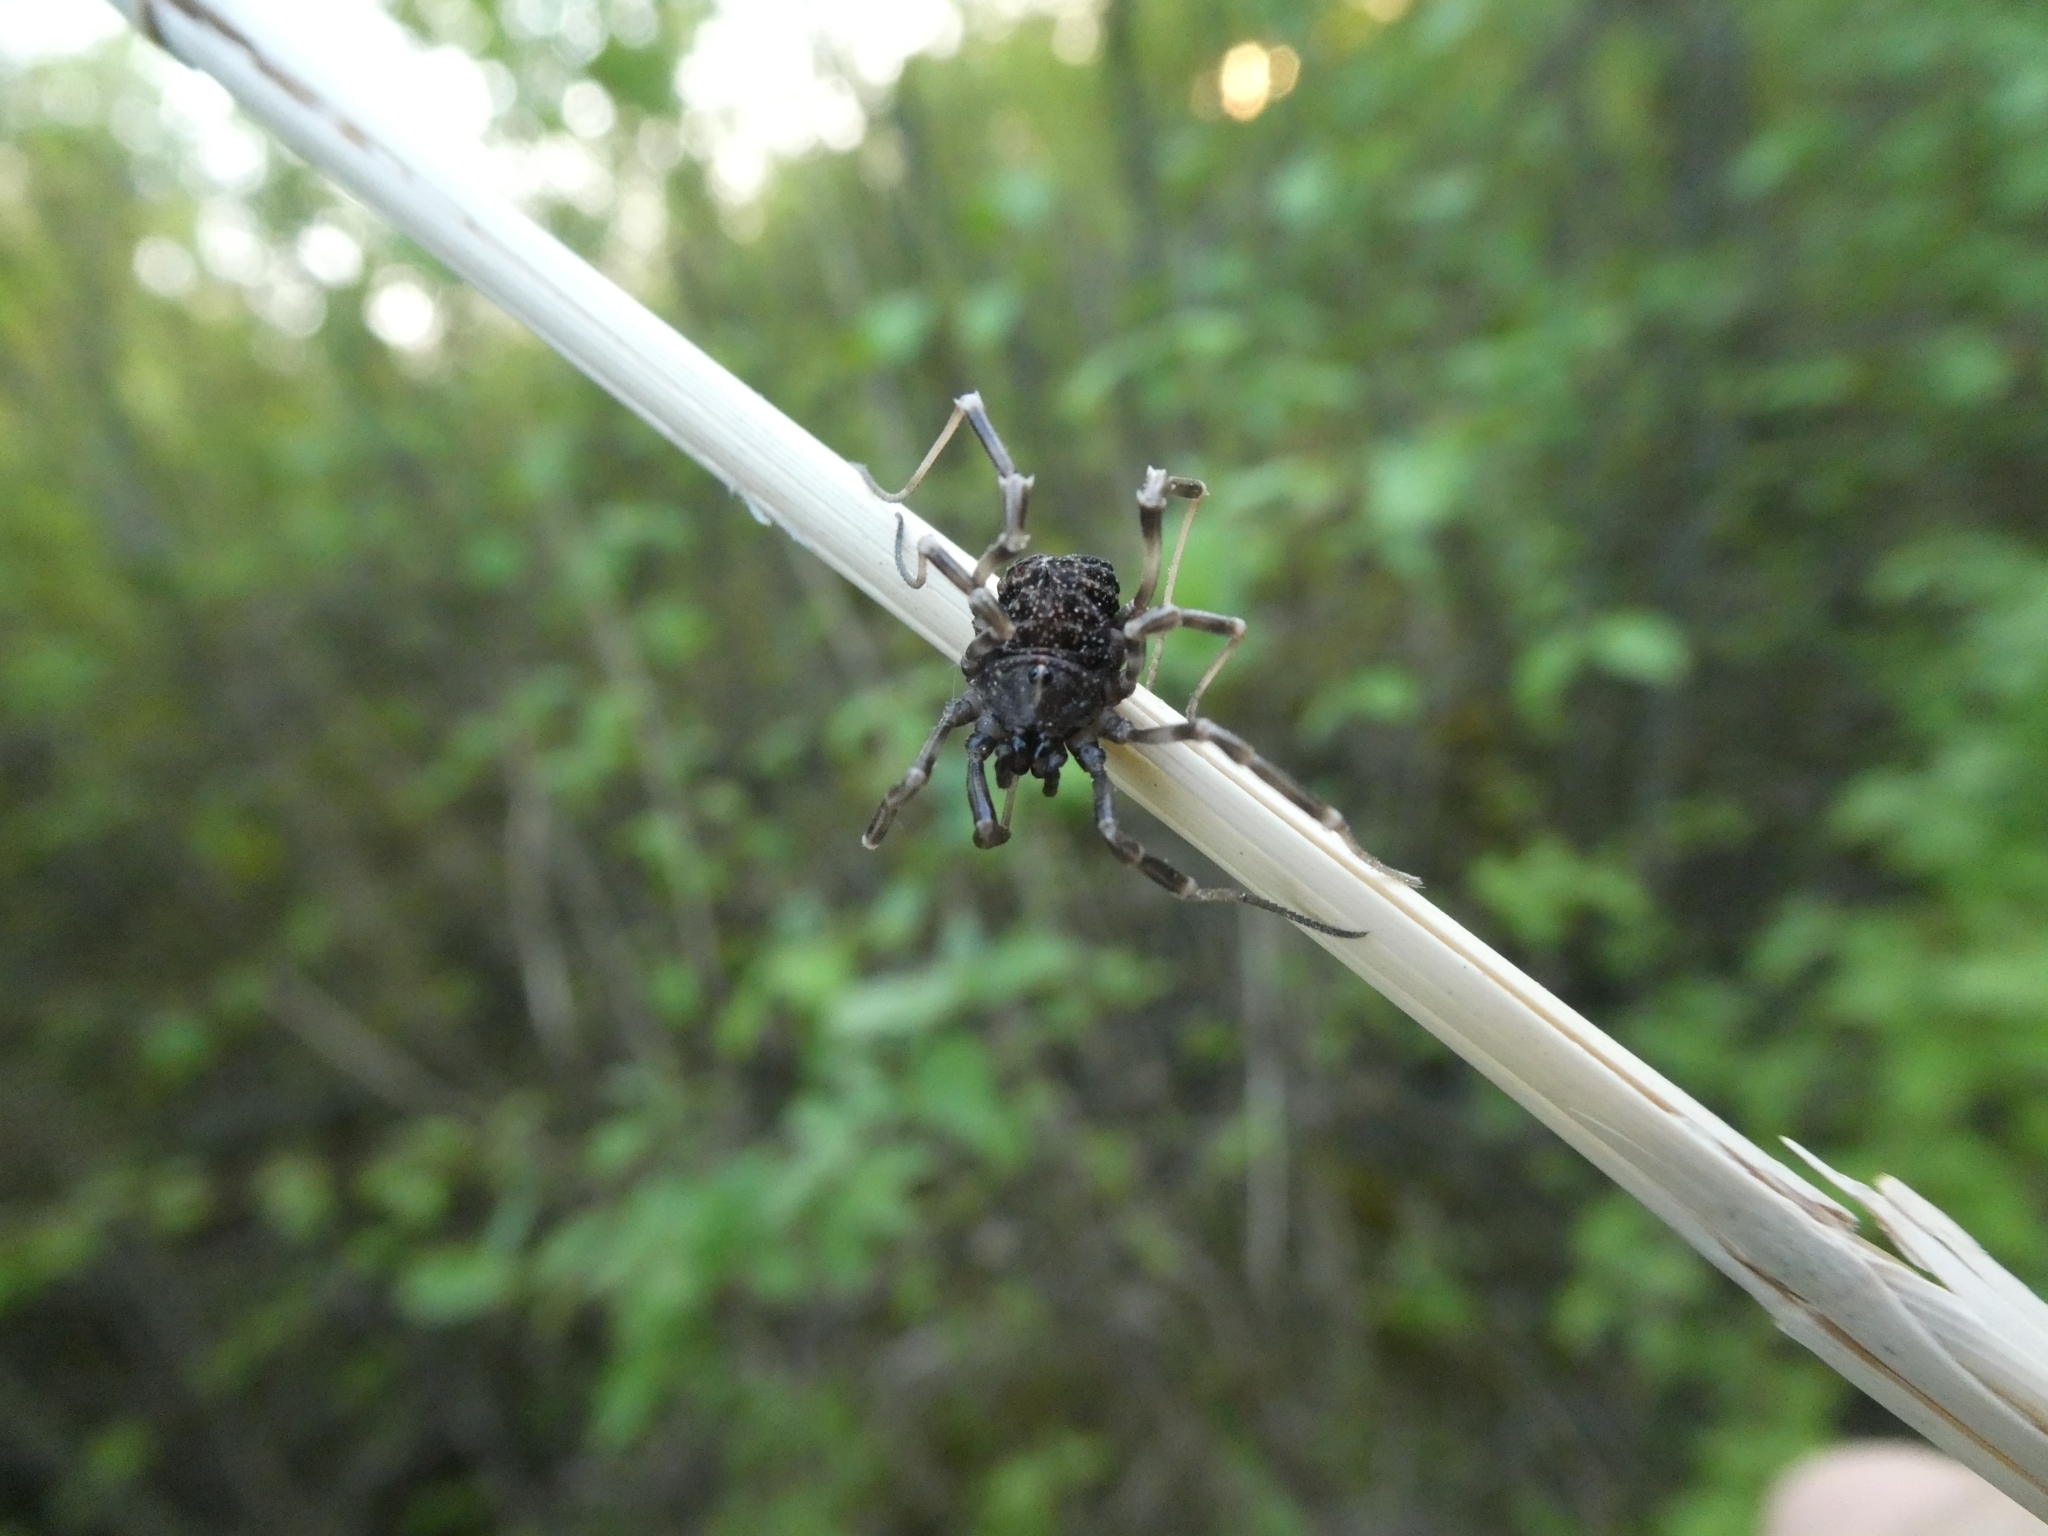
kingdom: Animalia
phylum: Arthropoda
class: Arachnida
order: Opiliones
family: Phalangiidae
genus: Egaenus
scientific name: Egaenus convexus
